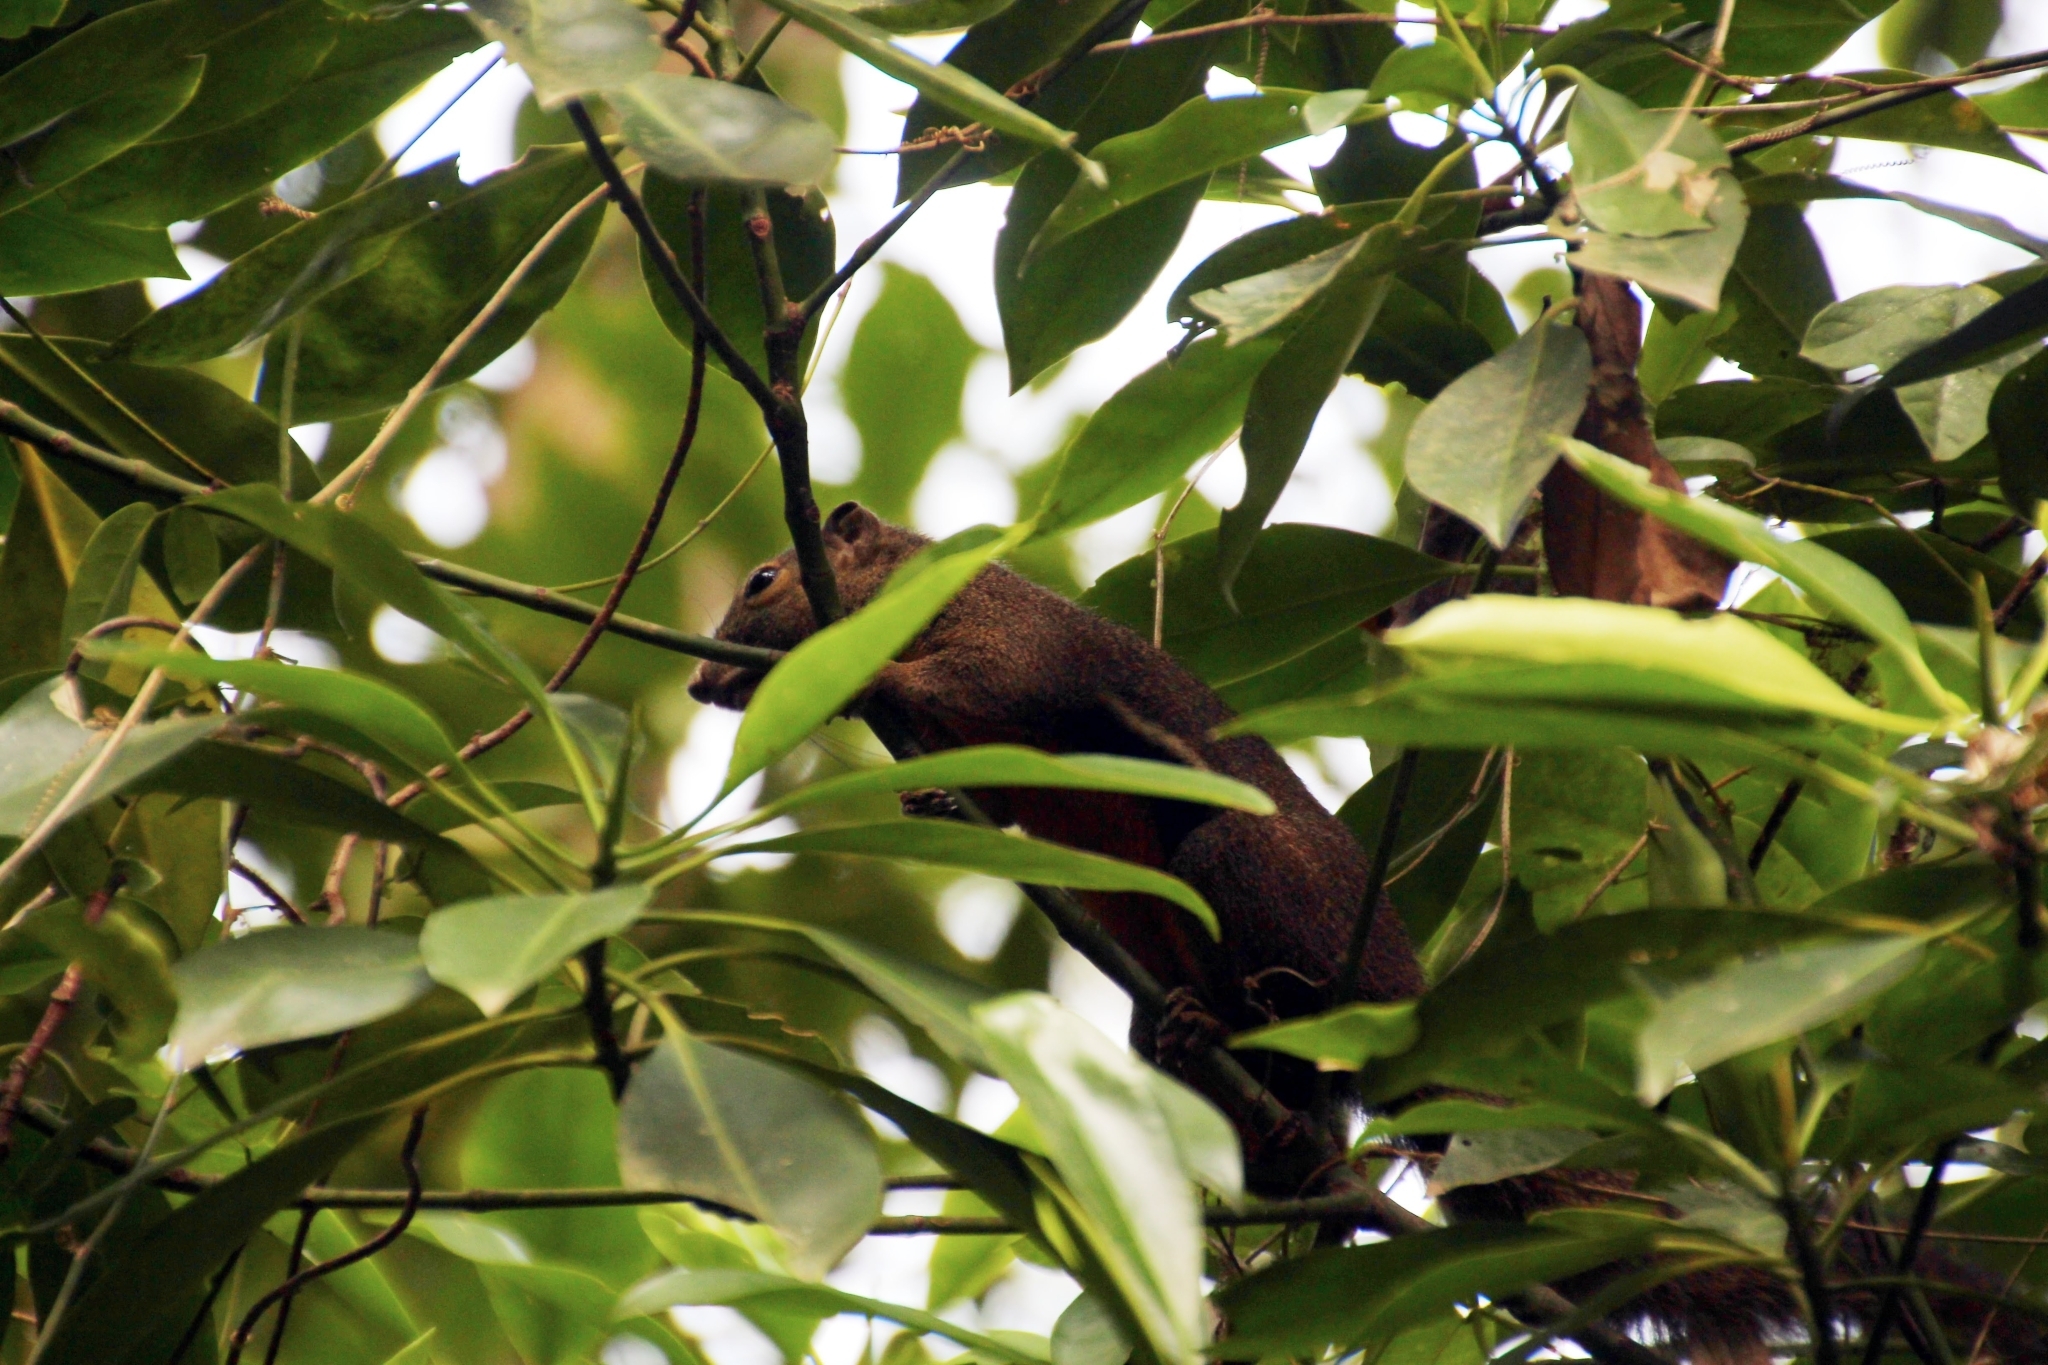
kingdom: Animalia
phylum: Chordata
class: Mammalia
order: Rodentia
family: Sciuridae
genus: Callosciurus
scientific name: Callosciurus notatus
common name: Plantain squirrel
